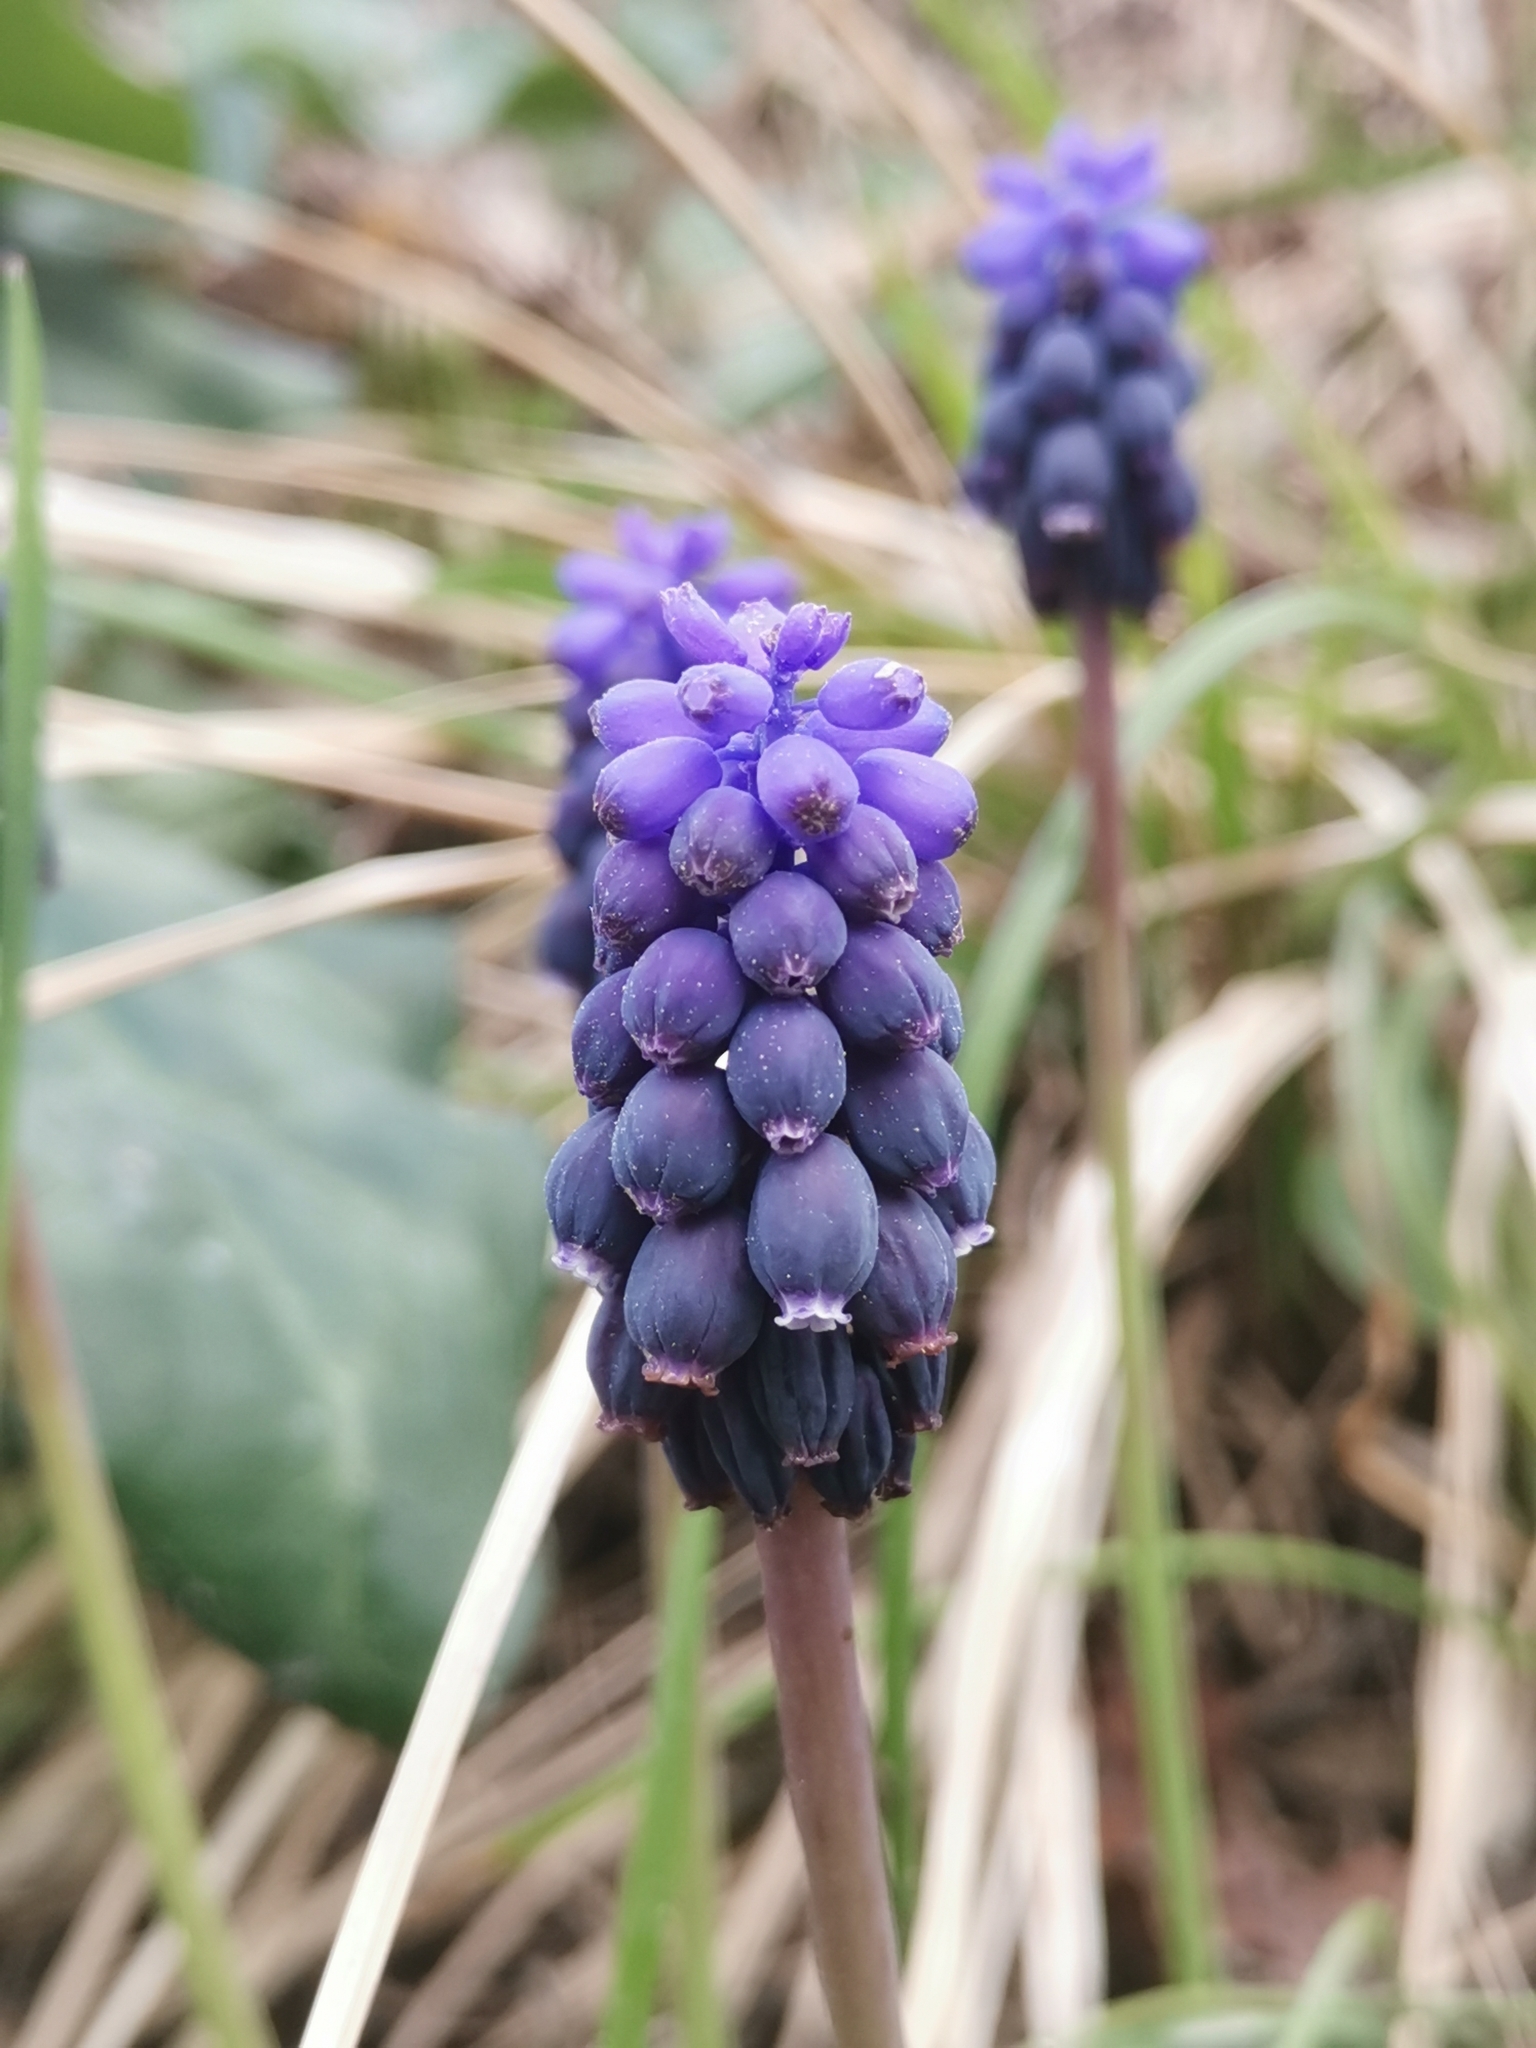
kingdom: Plantae
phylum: Tracheophyta
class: Liliopsida
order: Asparagales
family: Asparagaceae
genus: Muscari
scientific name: Muscari neglectum
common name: Grape-hyacinth
